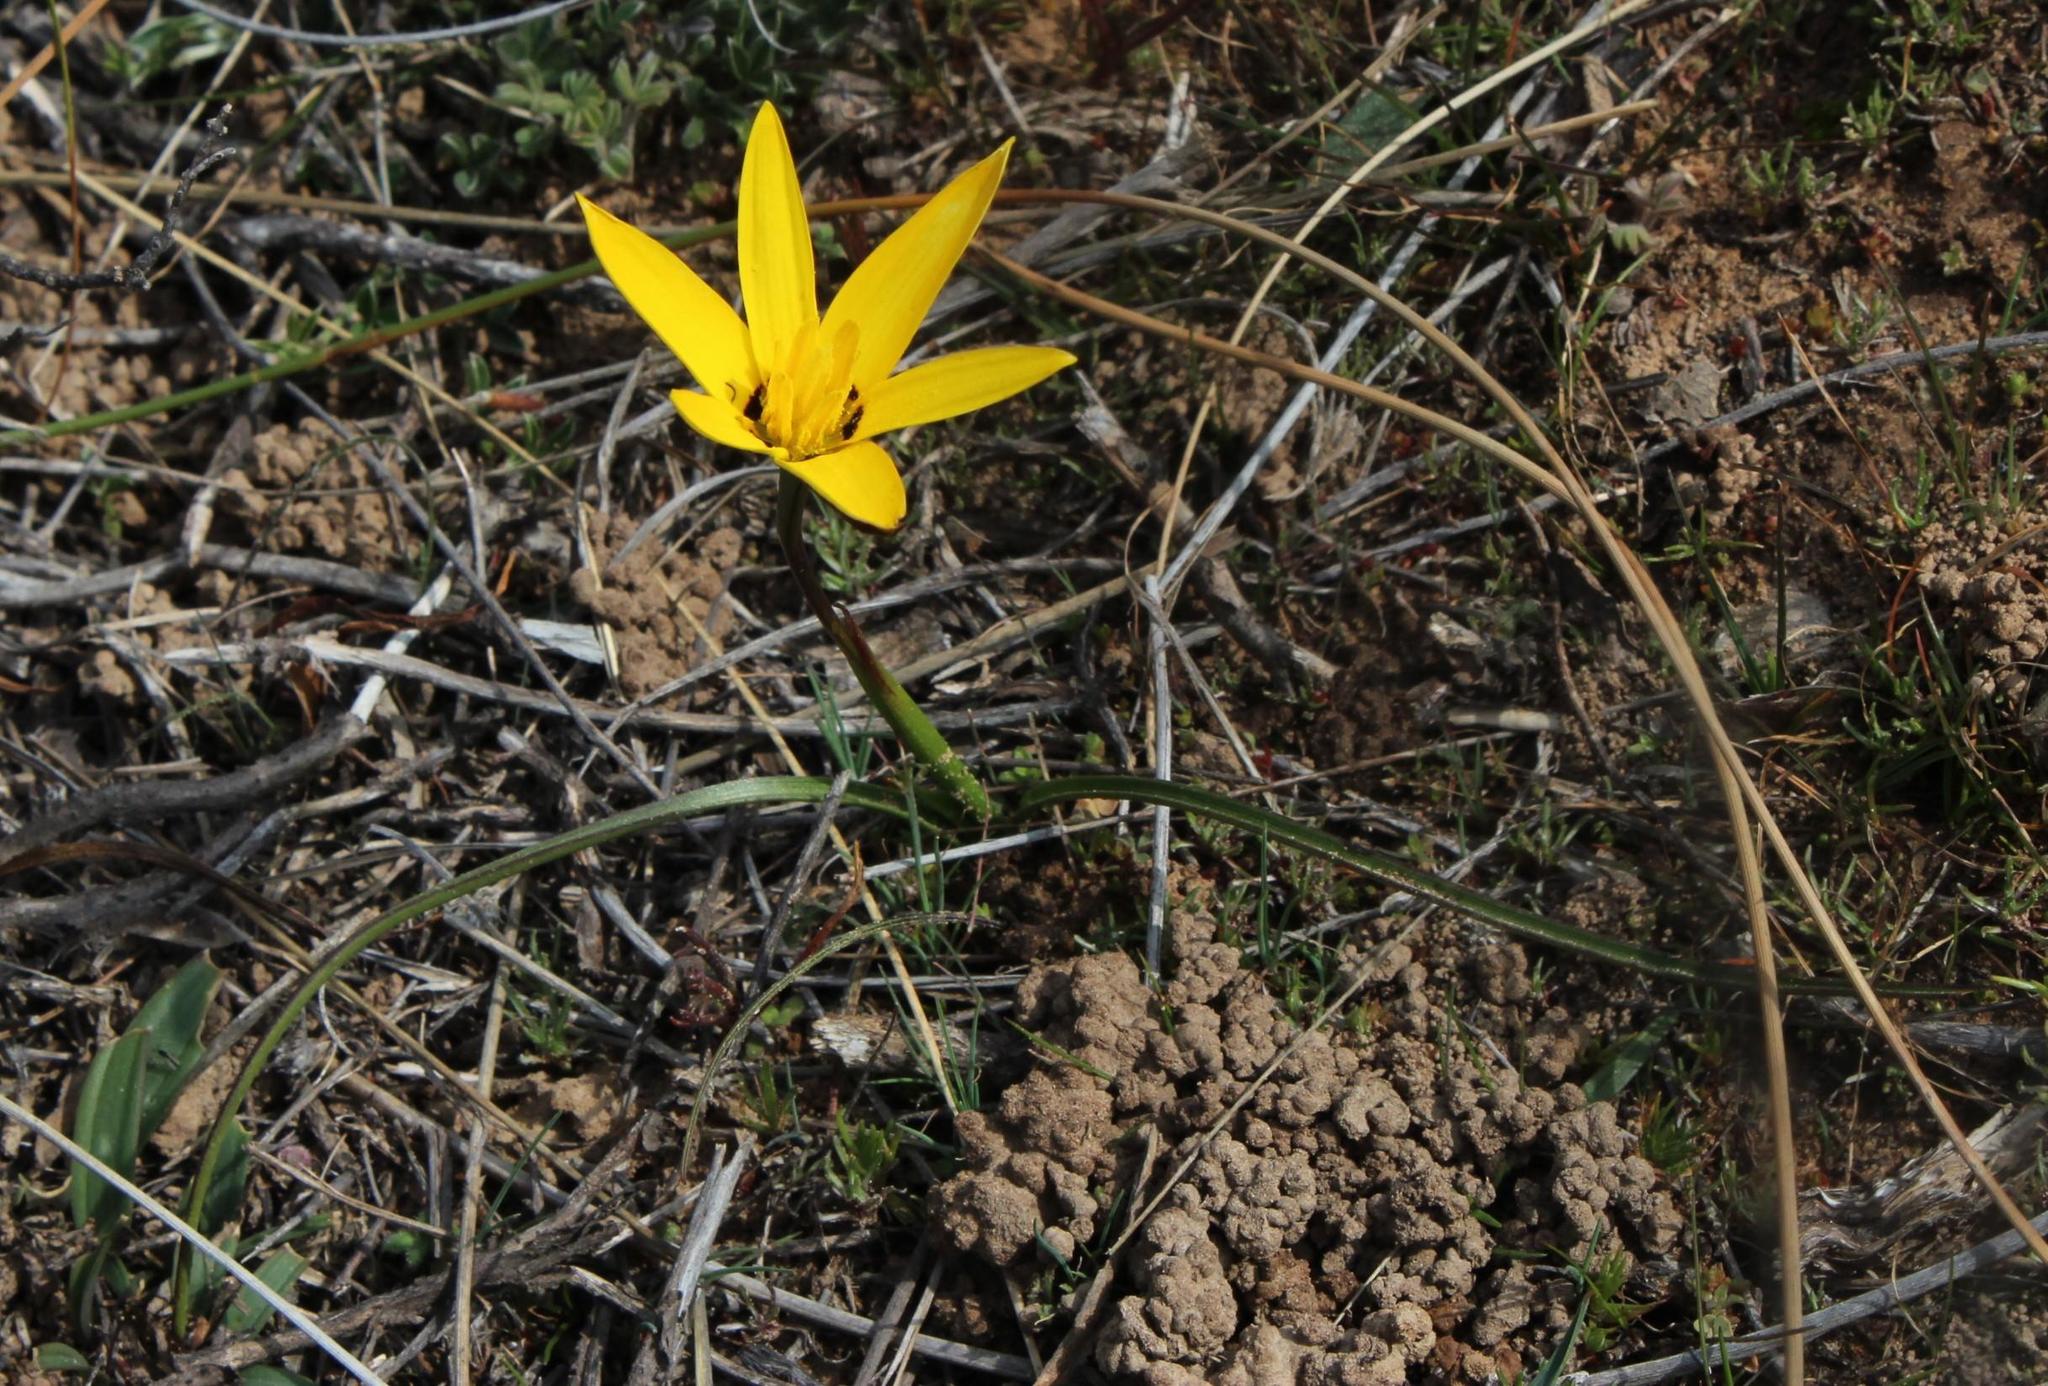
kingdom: Plantae
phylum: Tracheophyta
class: Liliopsida
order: Asparagales
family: Hypoxidaceae
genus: Pauridia
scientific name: Pauridia capensis
